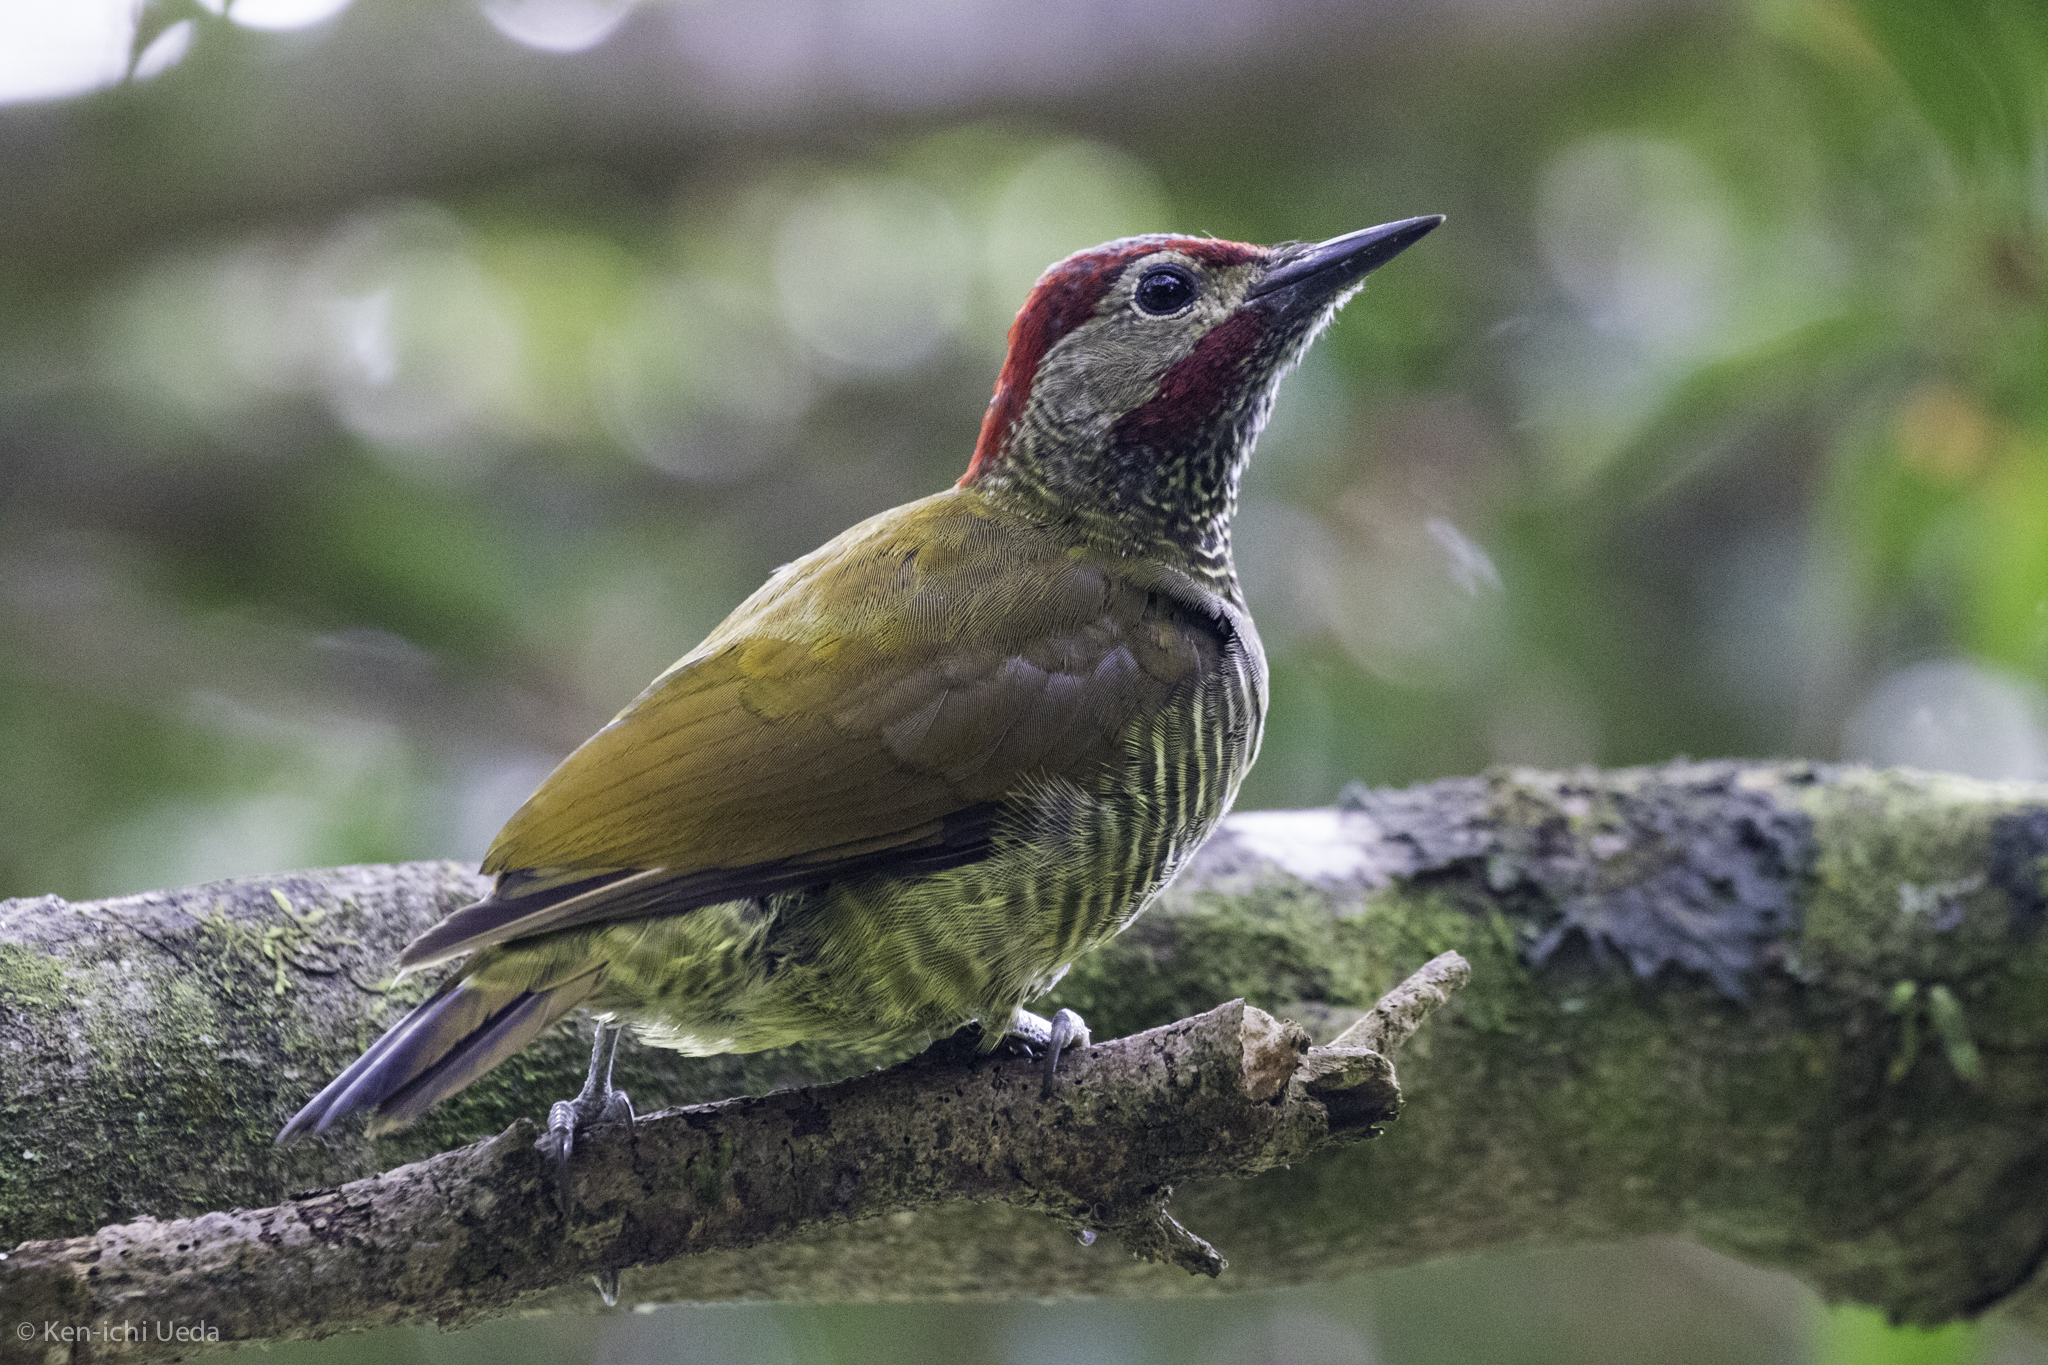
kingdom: Animalia
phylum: Chordata
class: Aves
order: Piciformes
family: Picidae
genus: Colaptes
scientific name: Colaptes rubiginosus
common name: Golden-olive woodpecker
